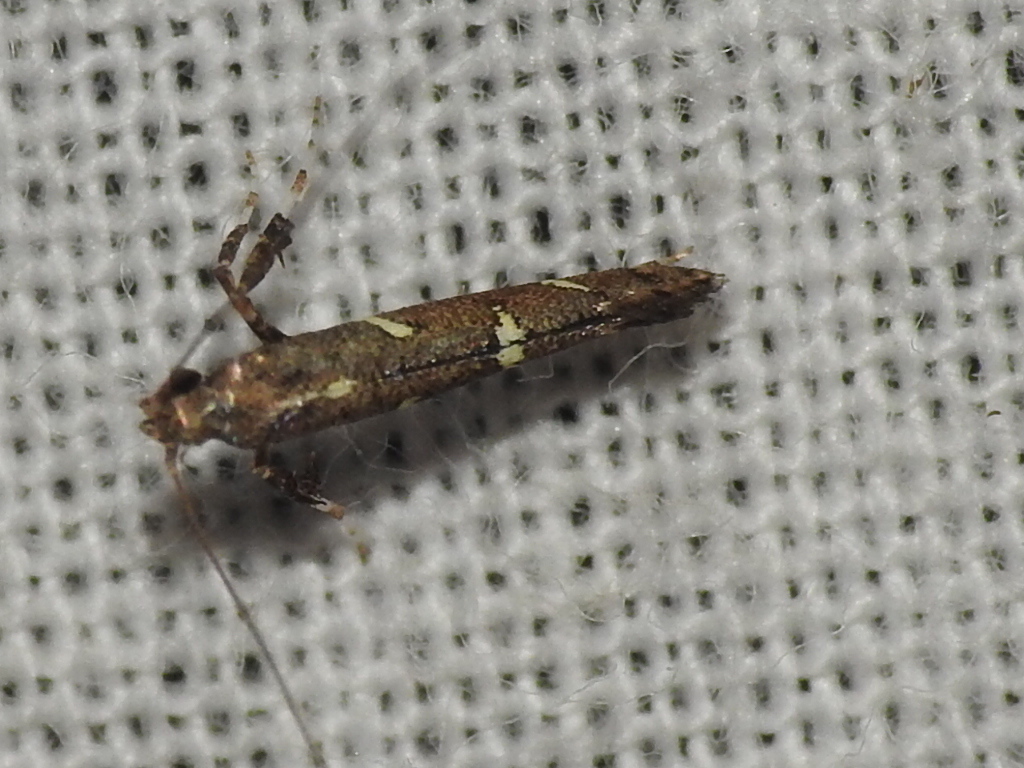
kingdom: Animalia
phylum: Arthropoda
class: Insecta
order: Lepidoptera
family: Gracillariidae
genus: Caloptilia
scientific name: Caloptilia triadicae
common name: Tallow leaf roller
